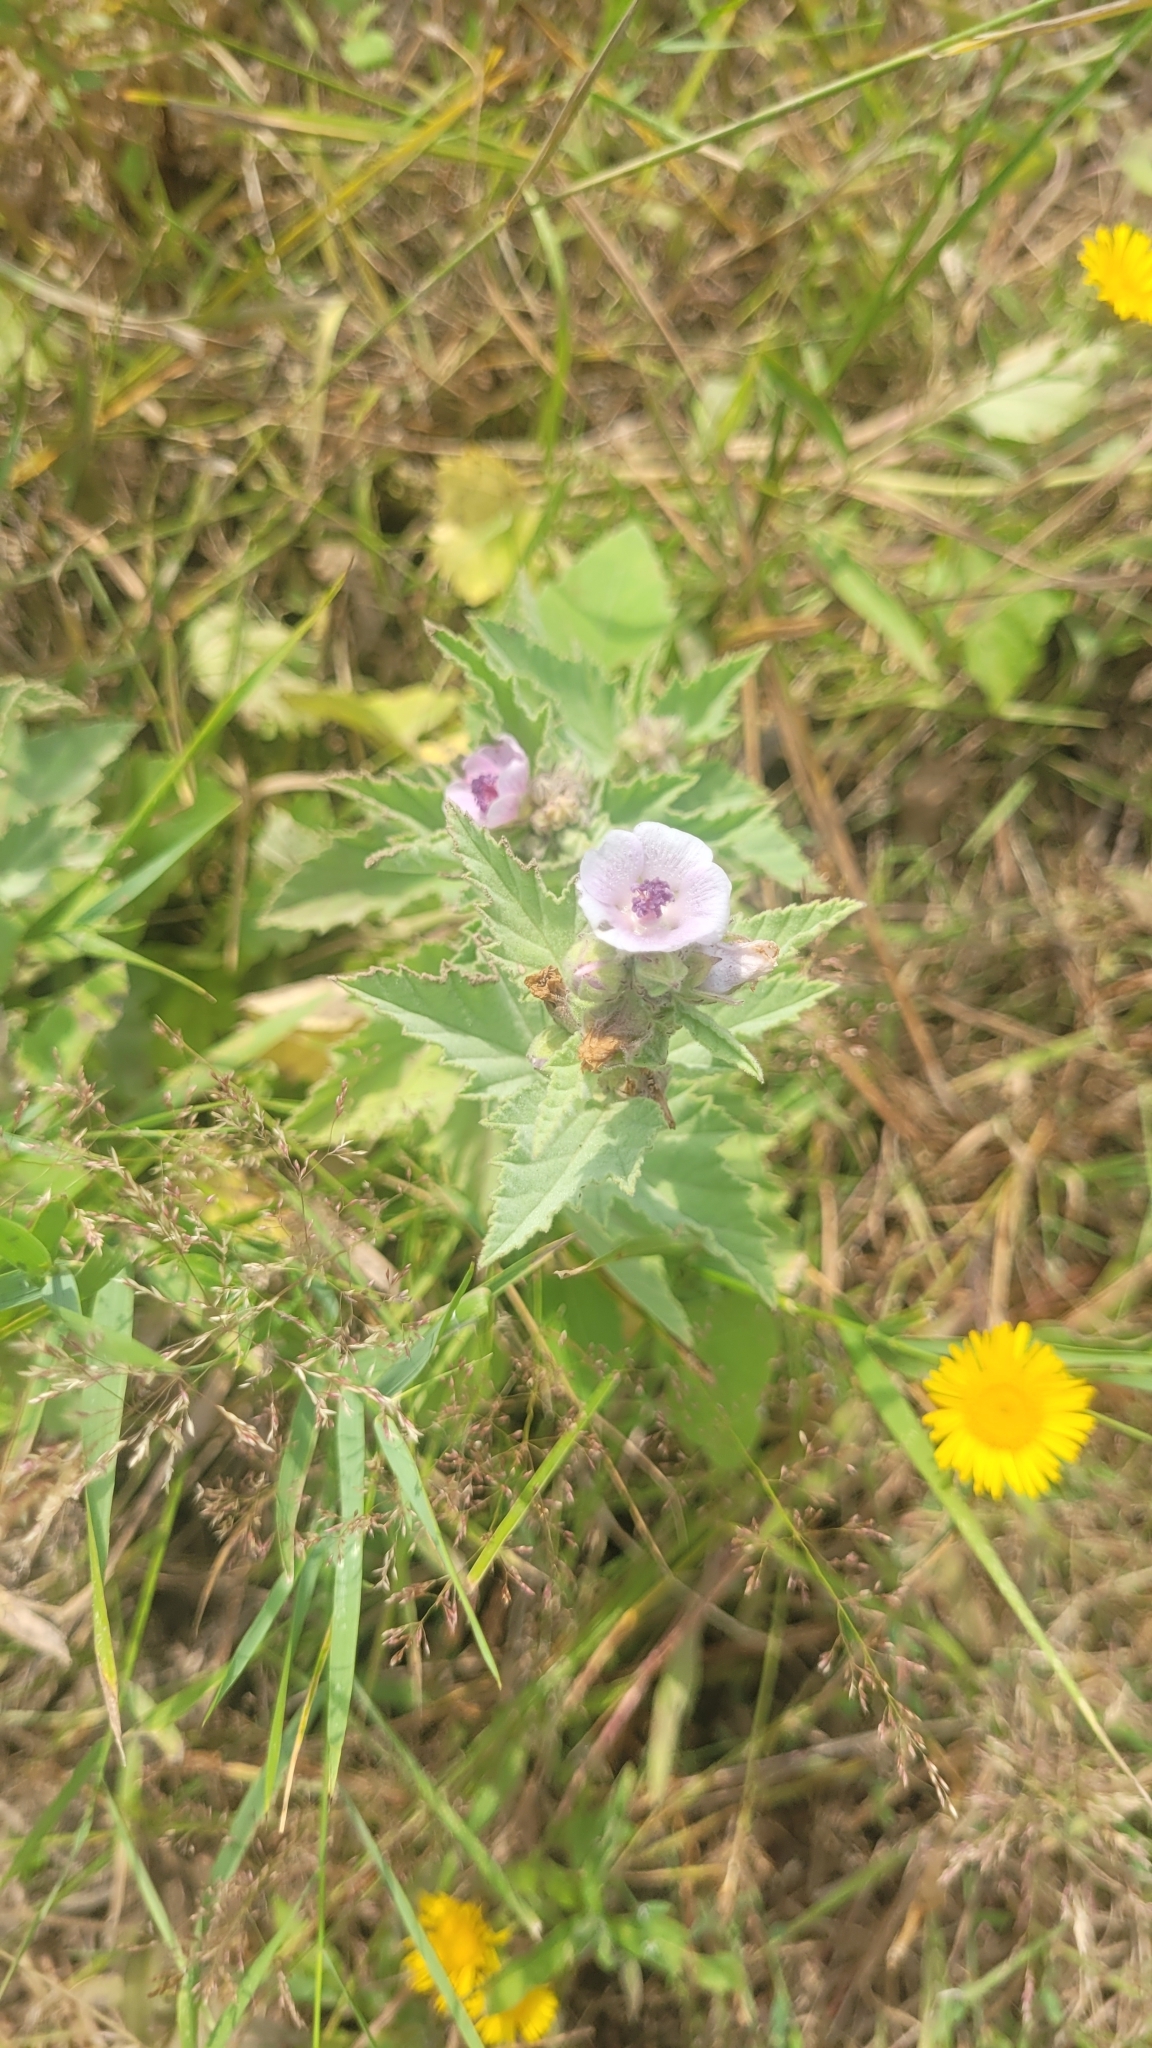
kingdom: Plantae
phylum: Tracheophyta
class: Magnoliopsida
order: Malvales
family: Malvaceae
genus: Althaea
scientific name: Althaea officinalis
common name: Marsh-mallow
